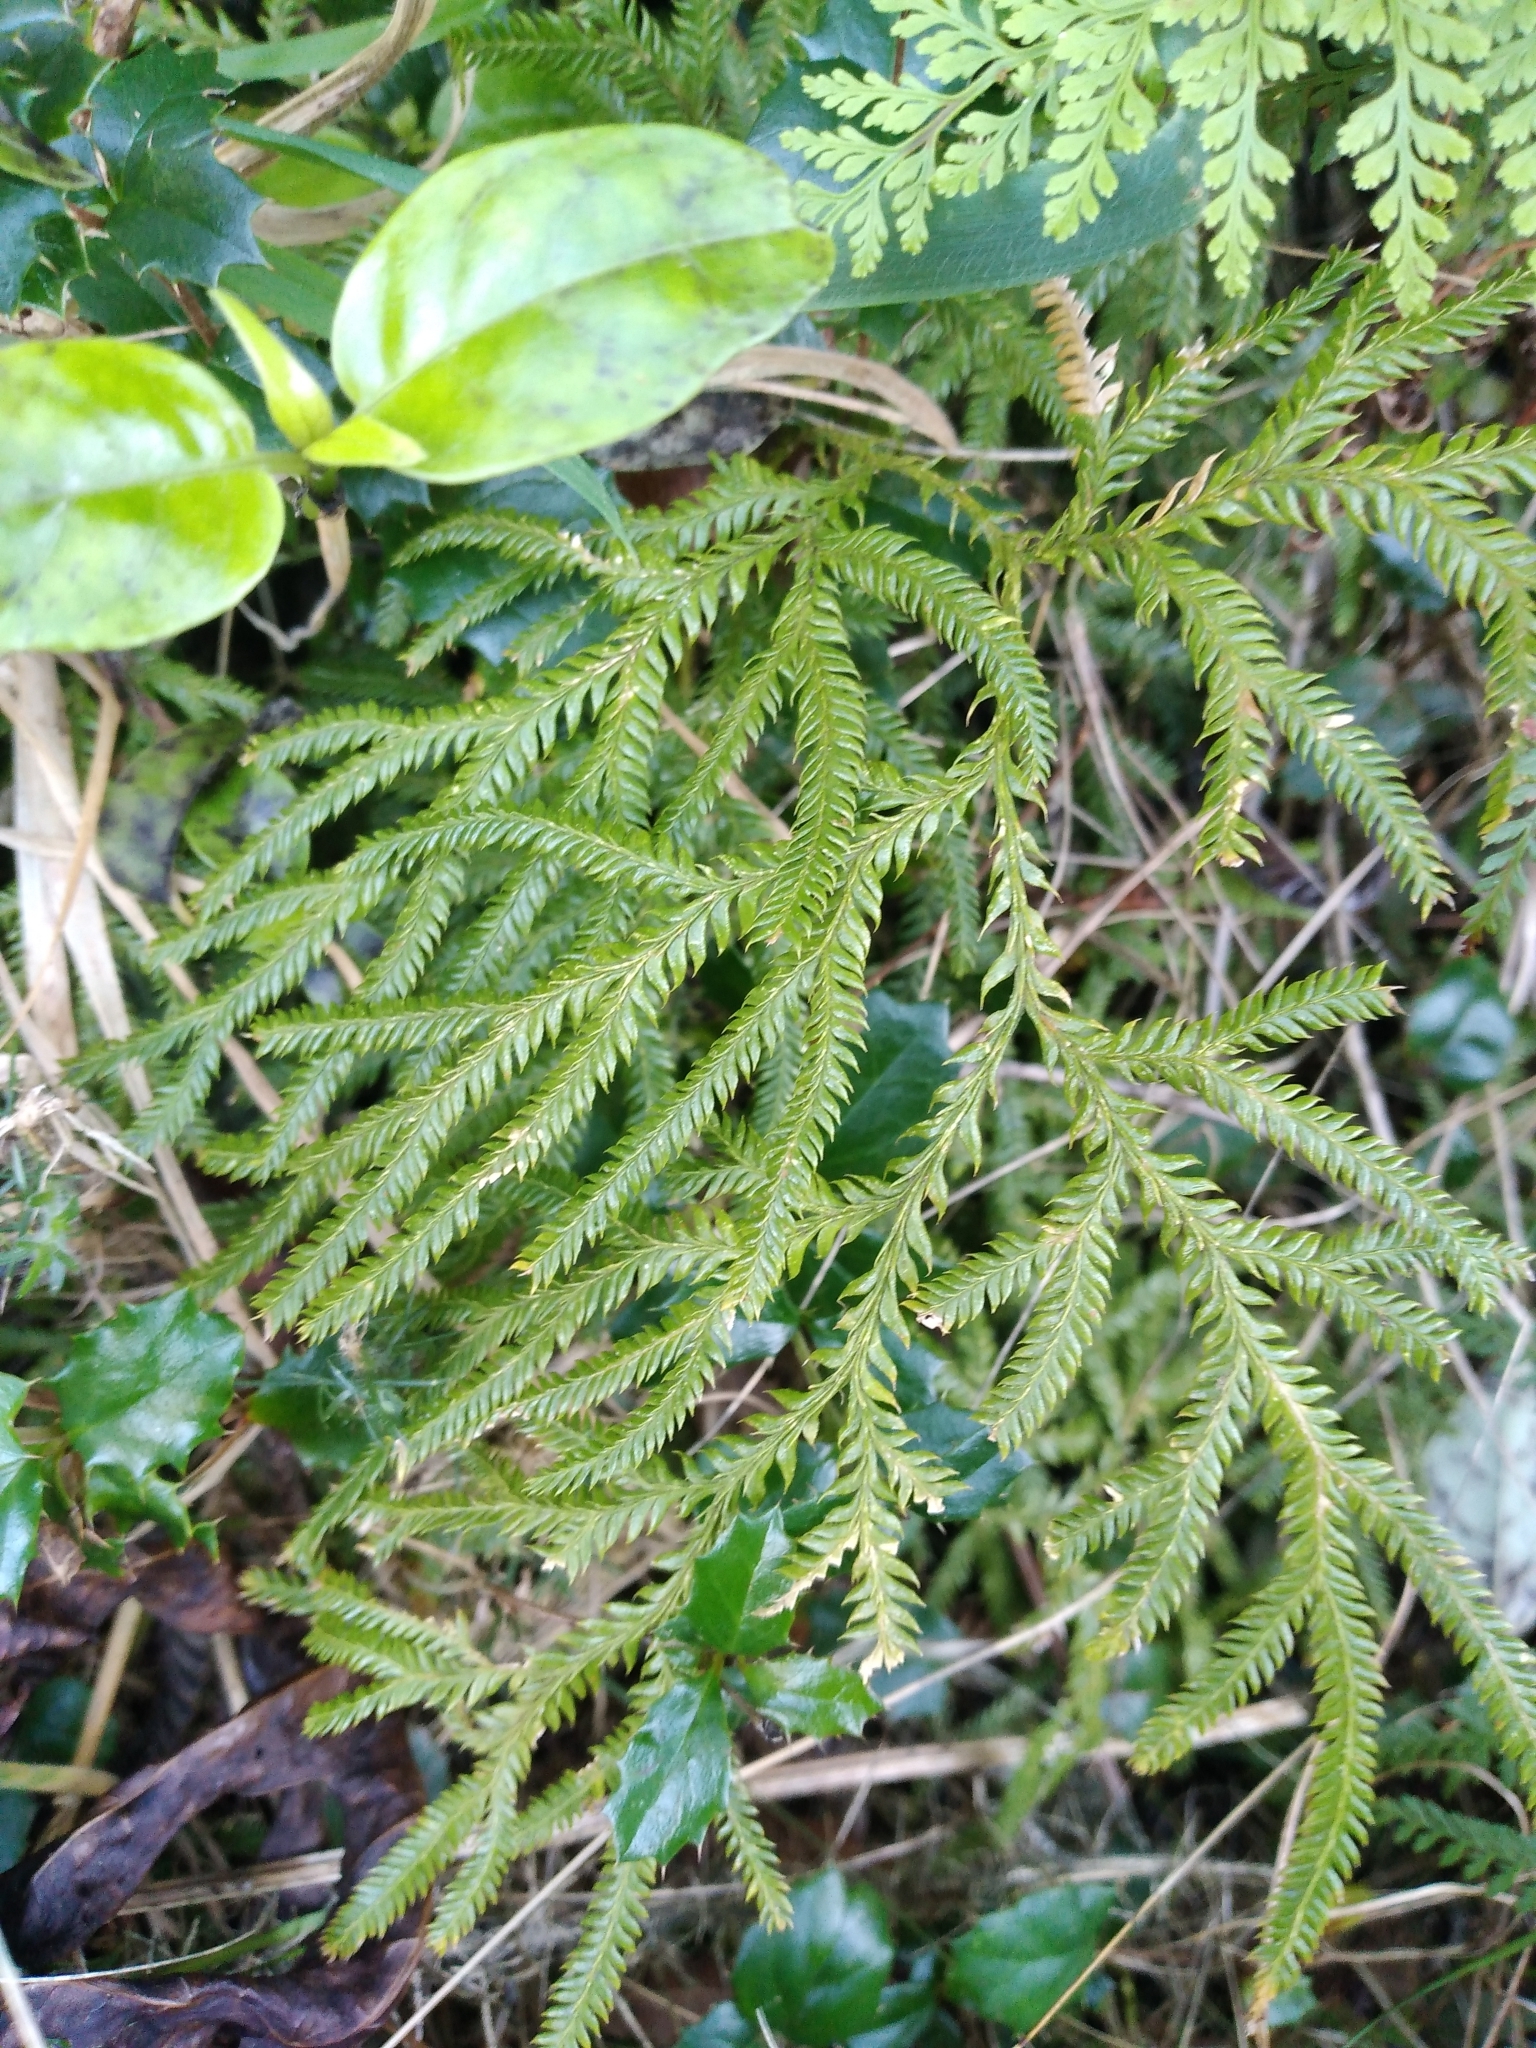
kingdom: Plantae
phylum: Tracheophyta
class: Lycopodiopsida
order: Lycopodiales
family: Lycopodiaceae
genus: Lycopodium
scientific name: Lycopodium volubile
